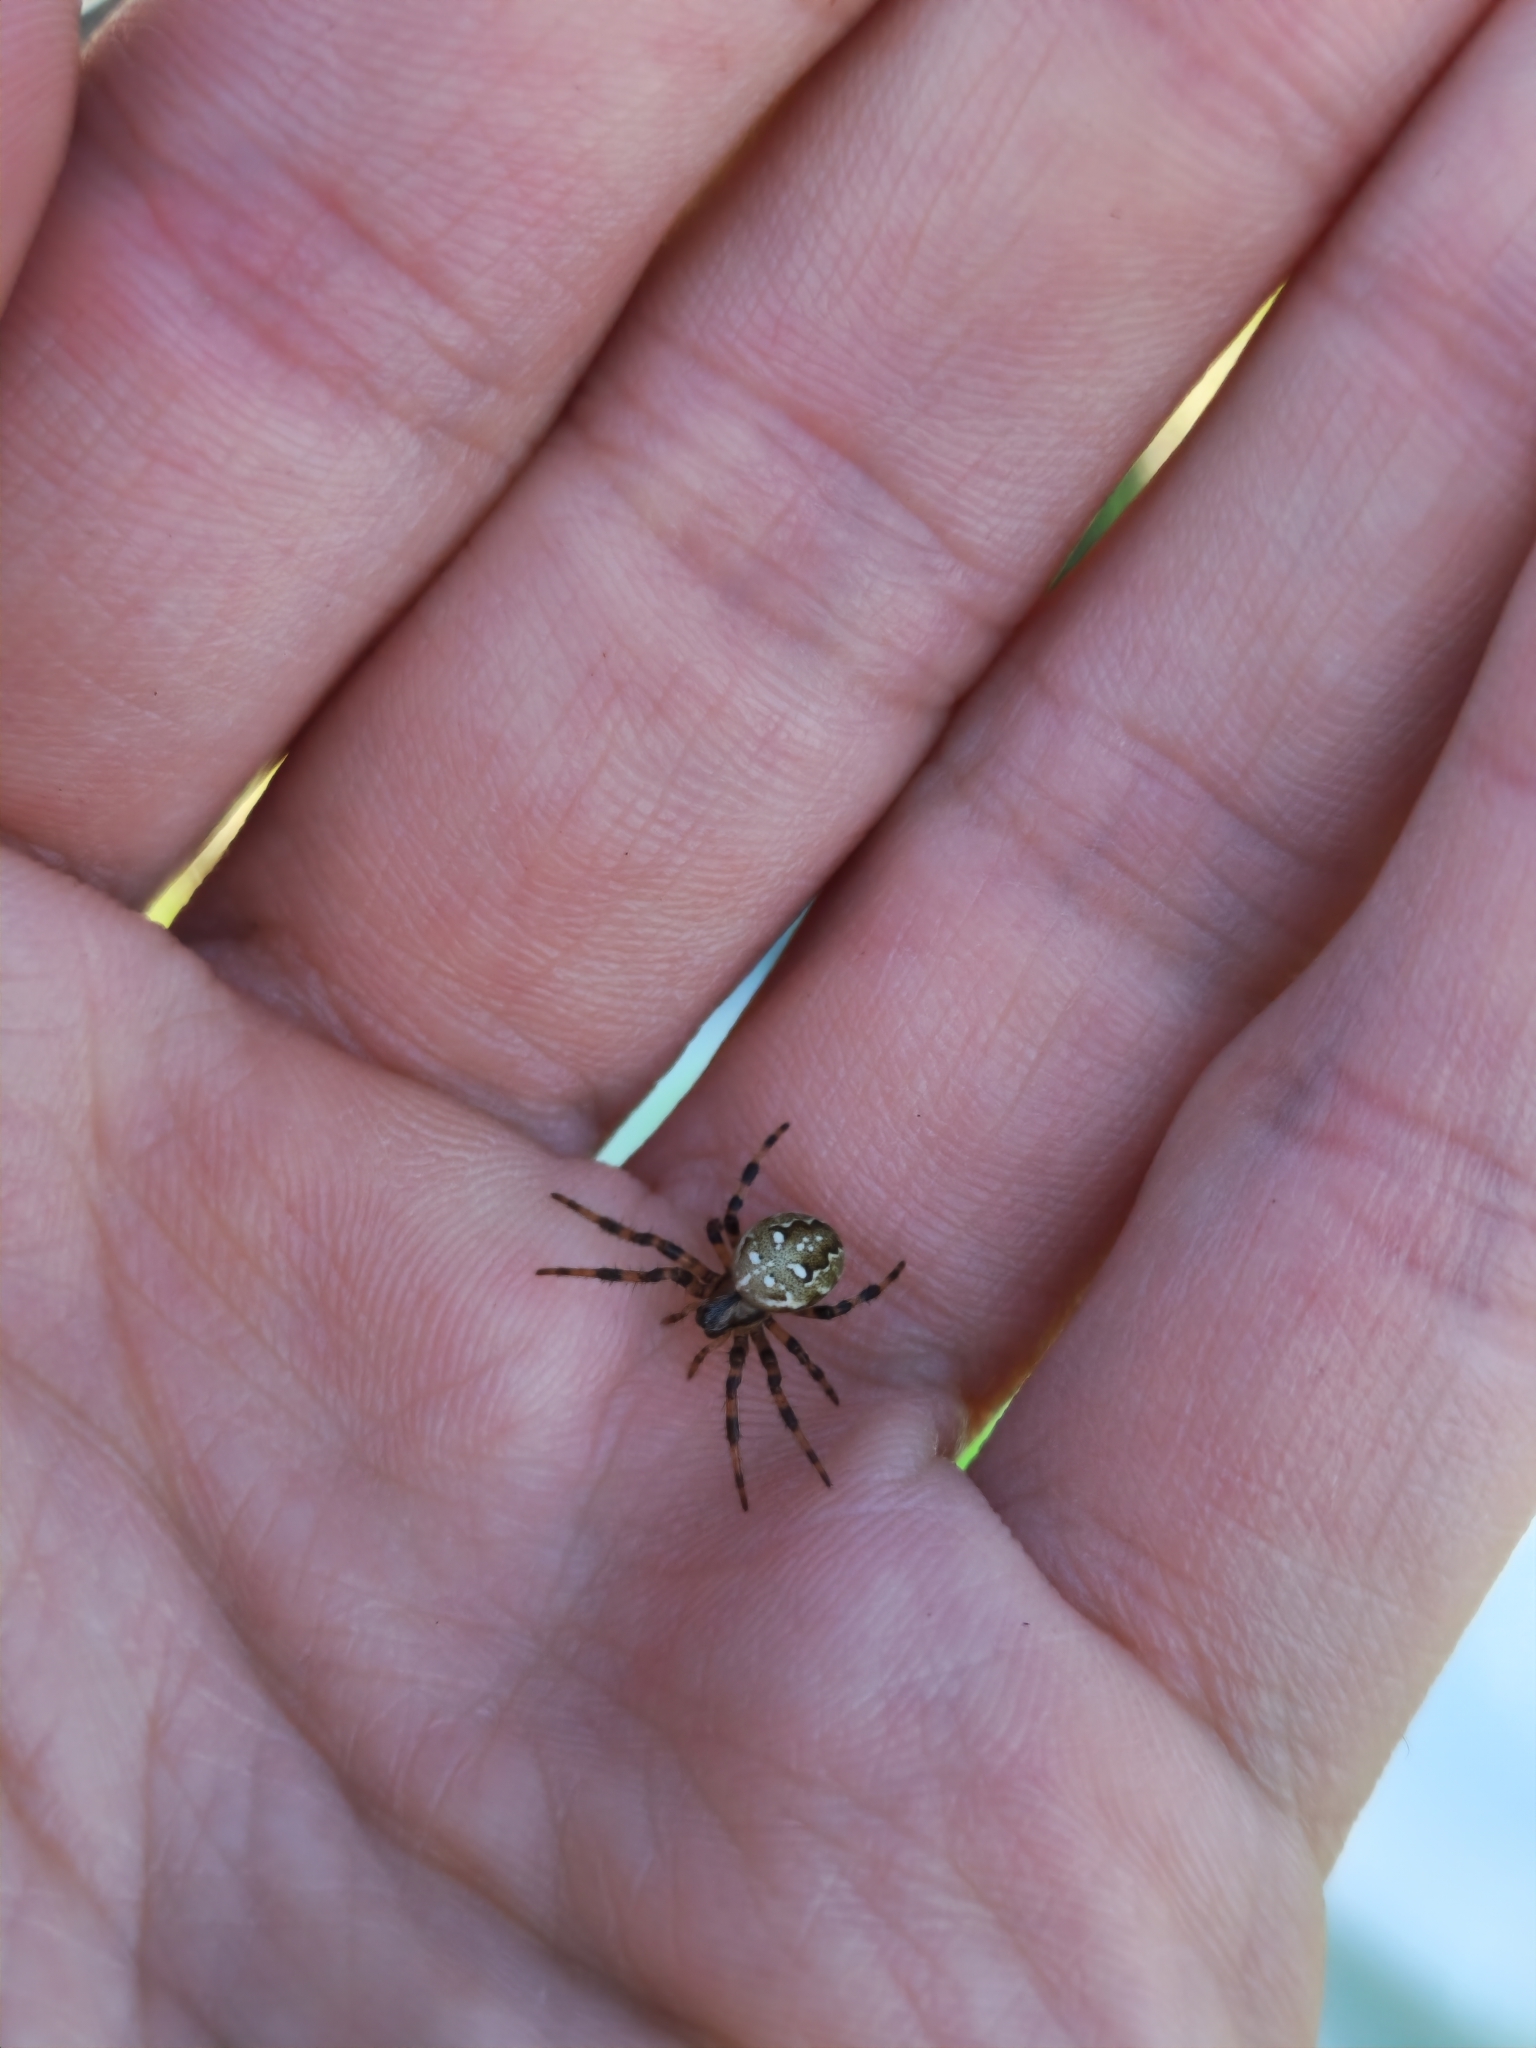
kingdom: Animalia
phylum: Arthropoda
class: Arachnida
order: Araneae
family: Araneidae
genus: Araneus
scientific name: Araneus quadratus
